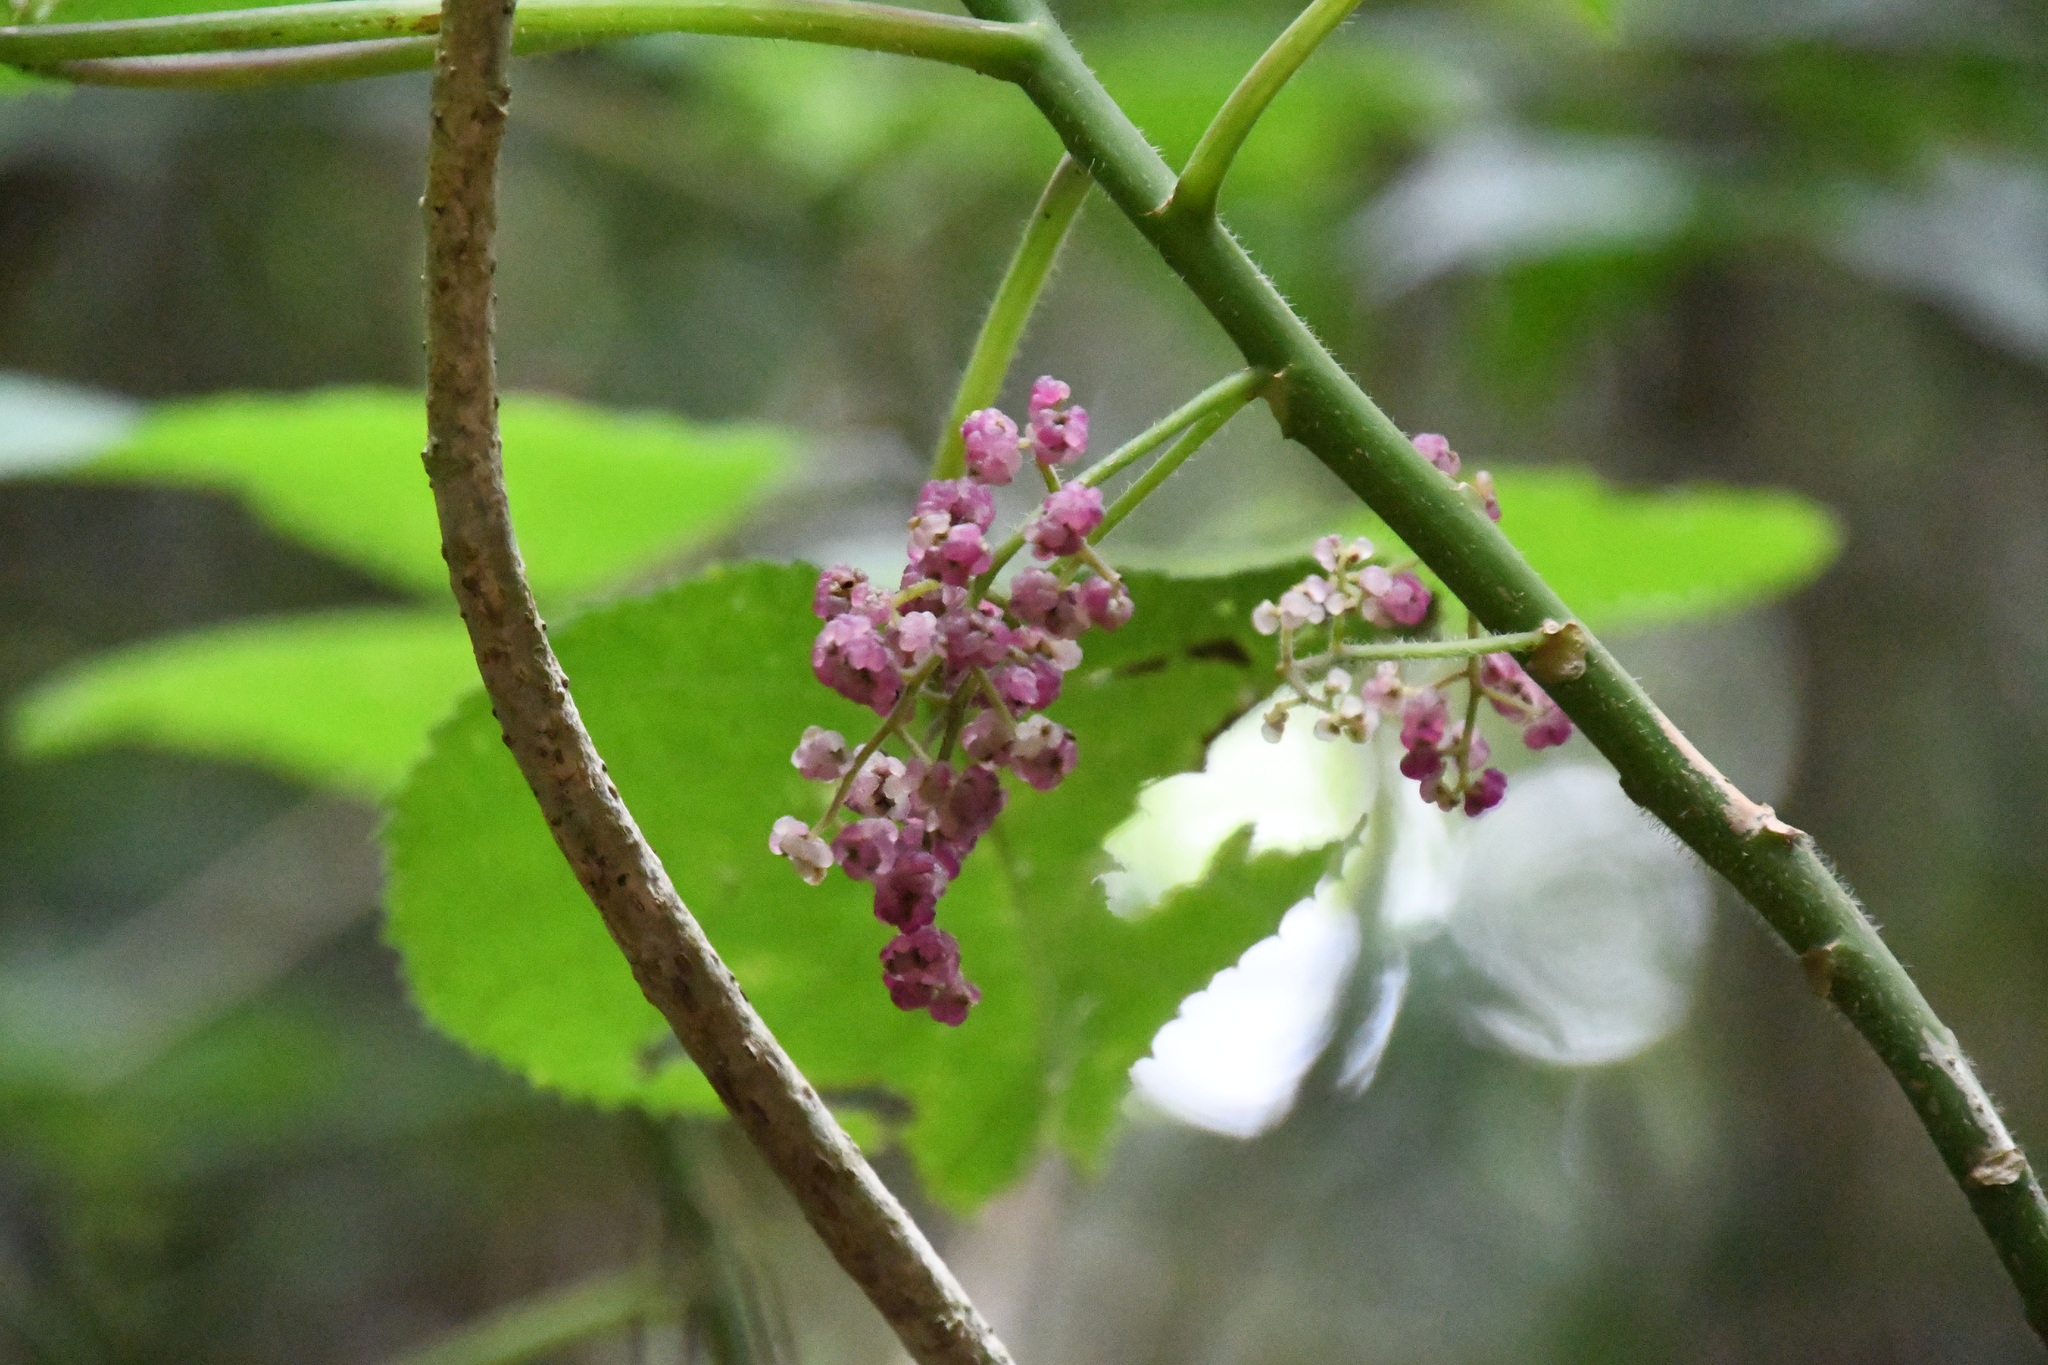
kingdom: Plantae
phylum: Tracheophyta
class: Magnoliopsida
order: Rosales
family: Urticaceae
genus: Dendrocnide
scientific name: Dendrocnide moroides
